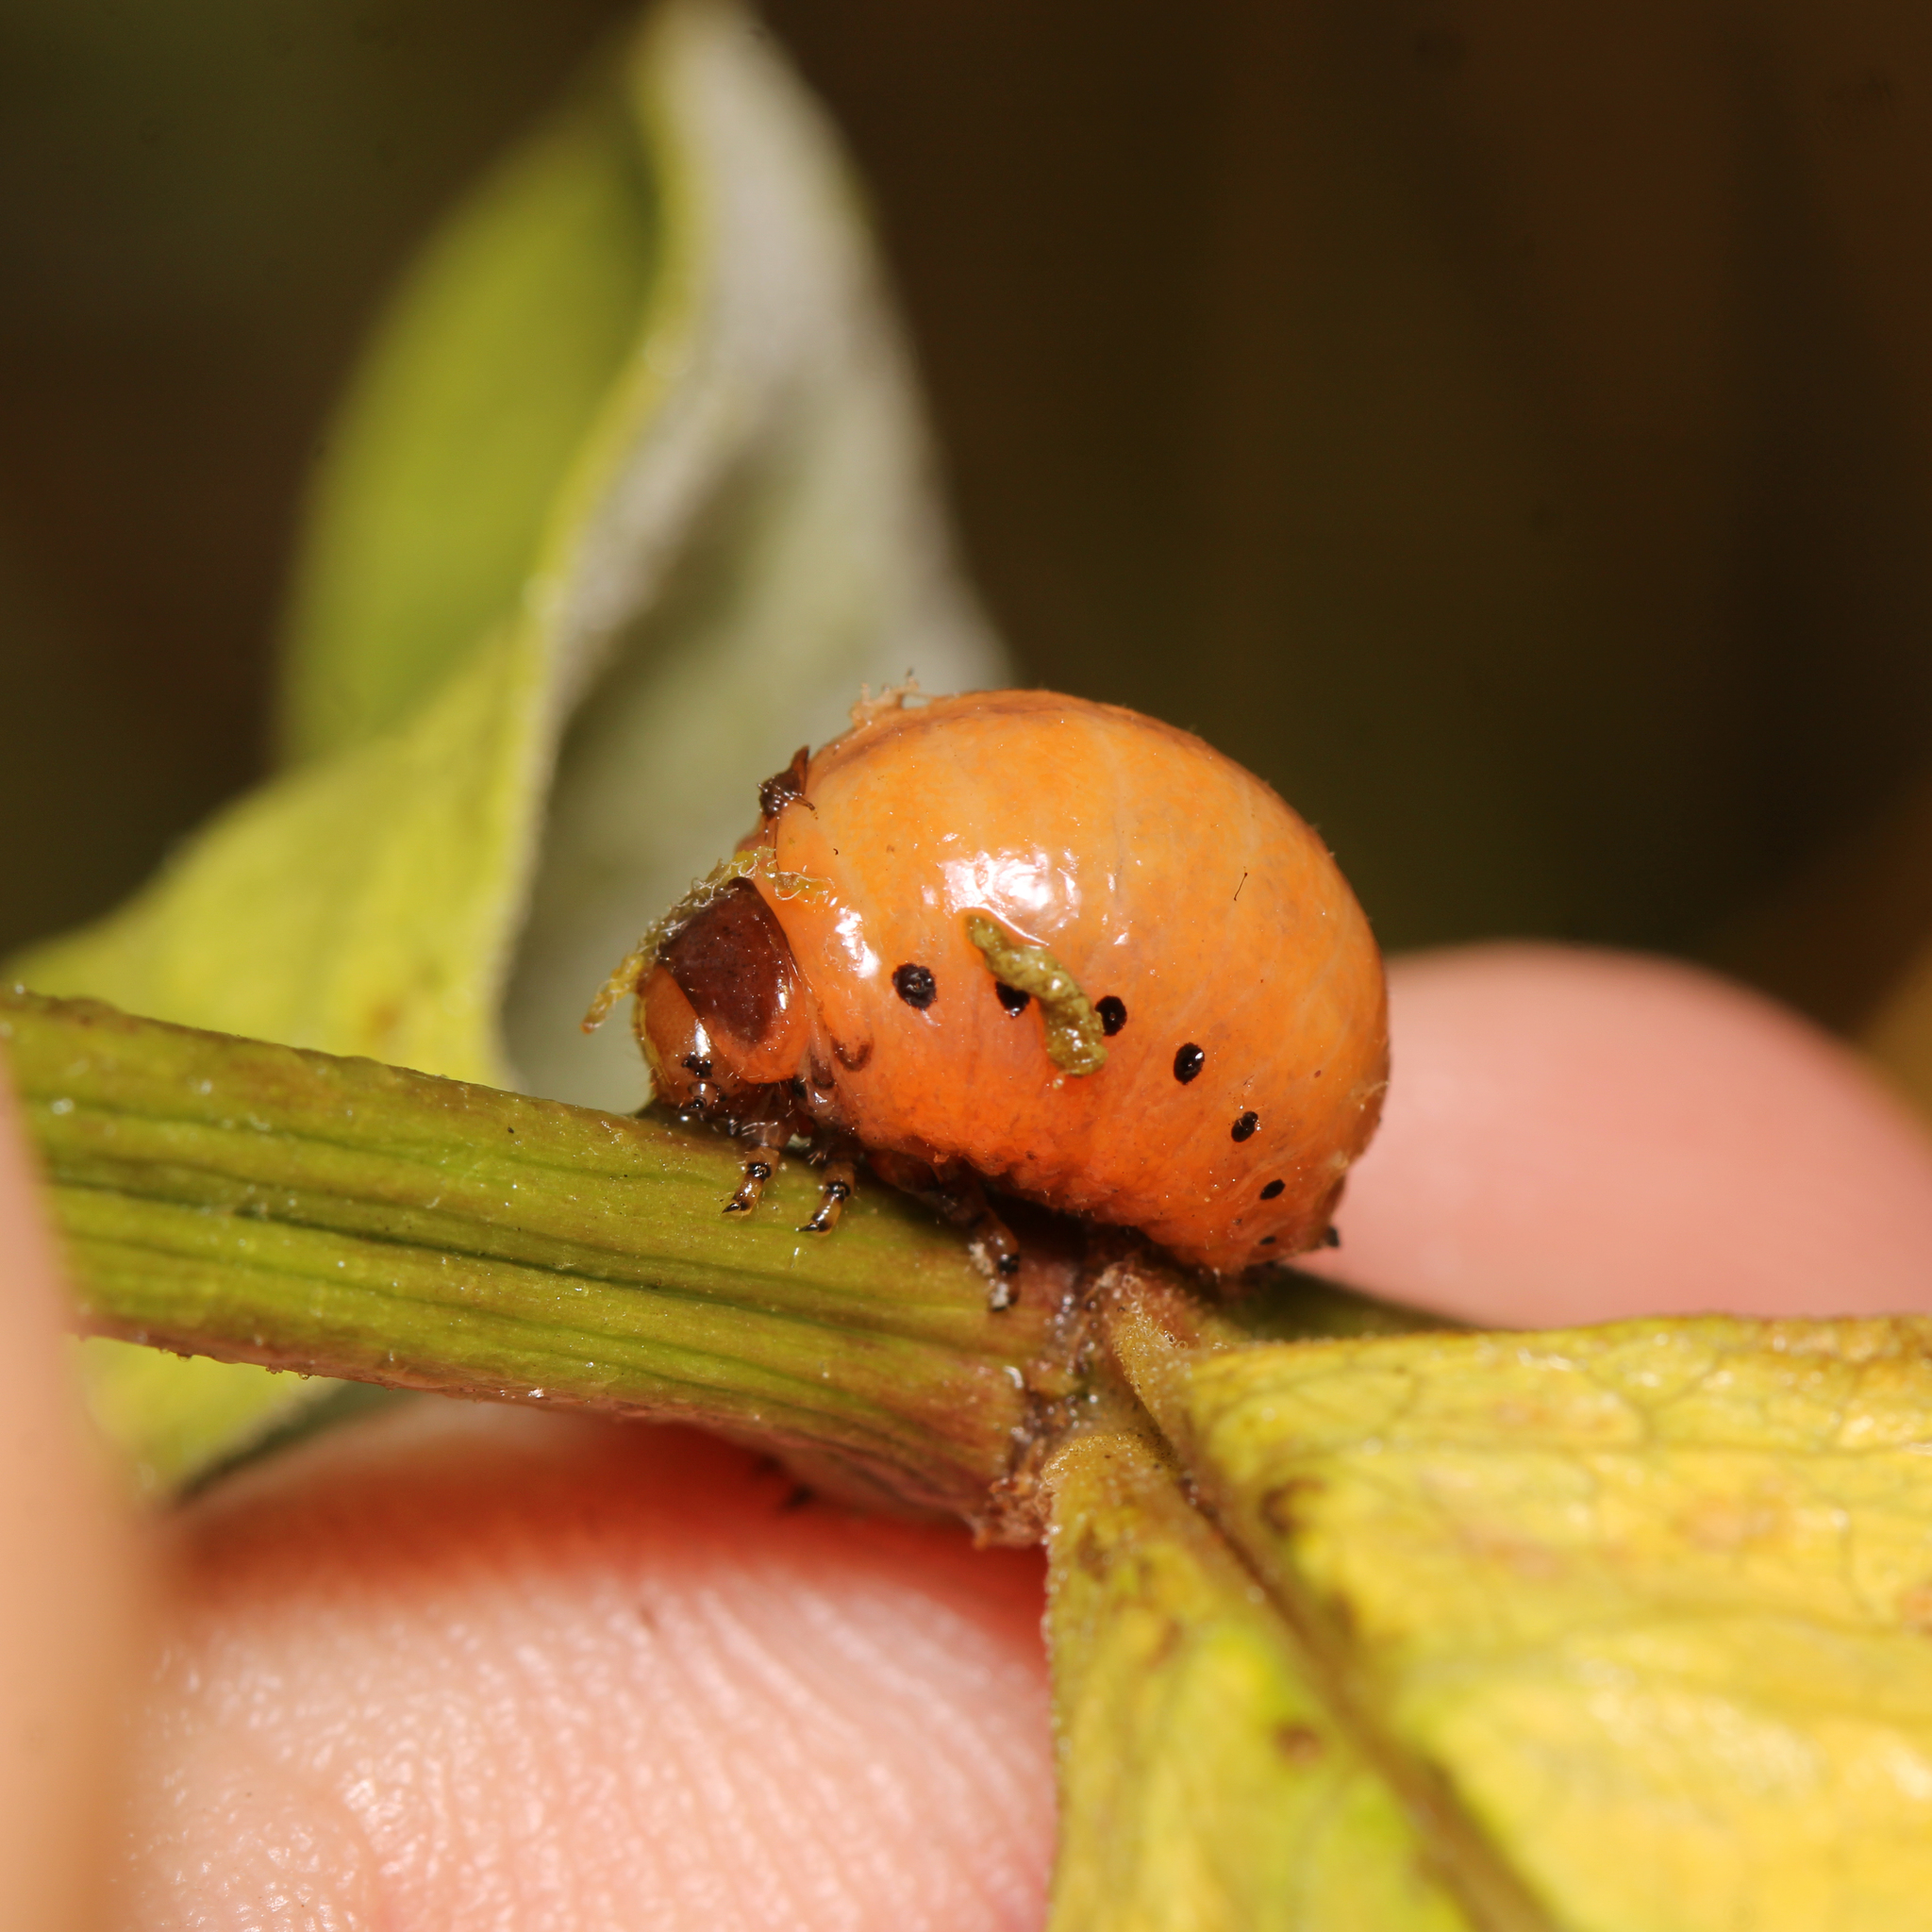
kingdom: Animalia
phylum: Arthropoda
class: Insecta
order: Coleoptera
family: Chrysomelidae
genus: Labidomera
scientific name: Labidomera clivicollis
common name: Swamp milkweed leaf beetle
